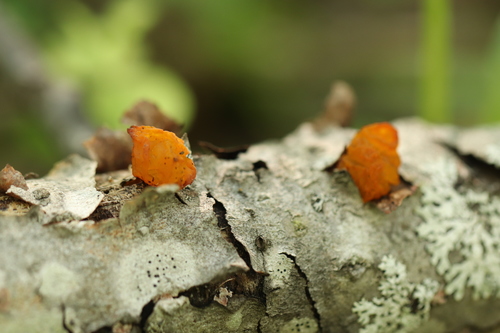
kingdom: Fungi
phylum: Basidiomycota
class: Tremellomycetes
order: Tremellales
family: Tremellaceae
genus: Tremella
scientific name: Tremella
